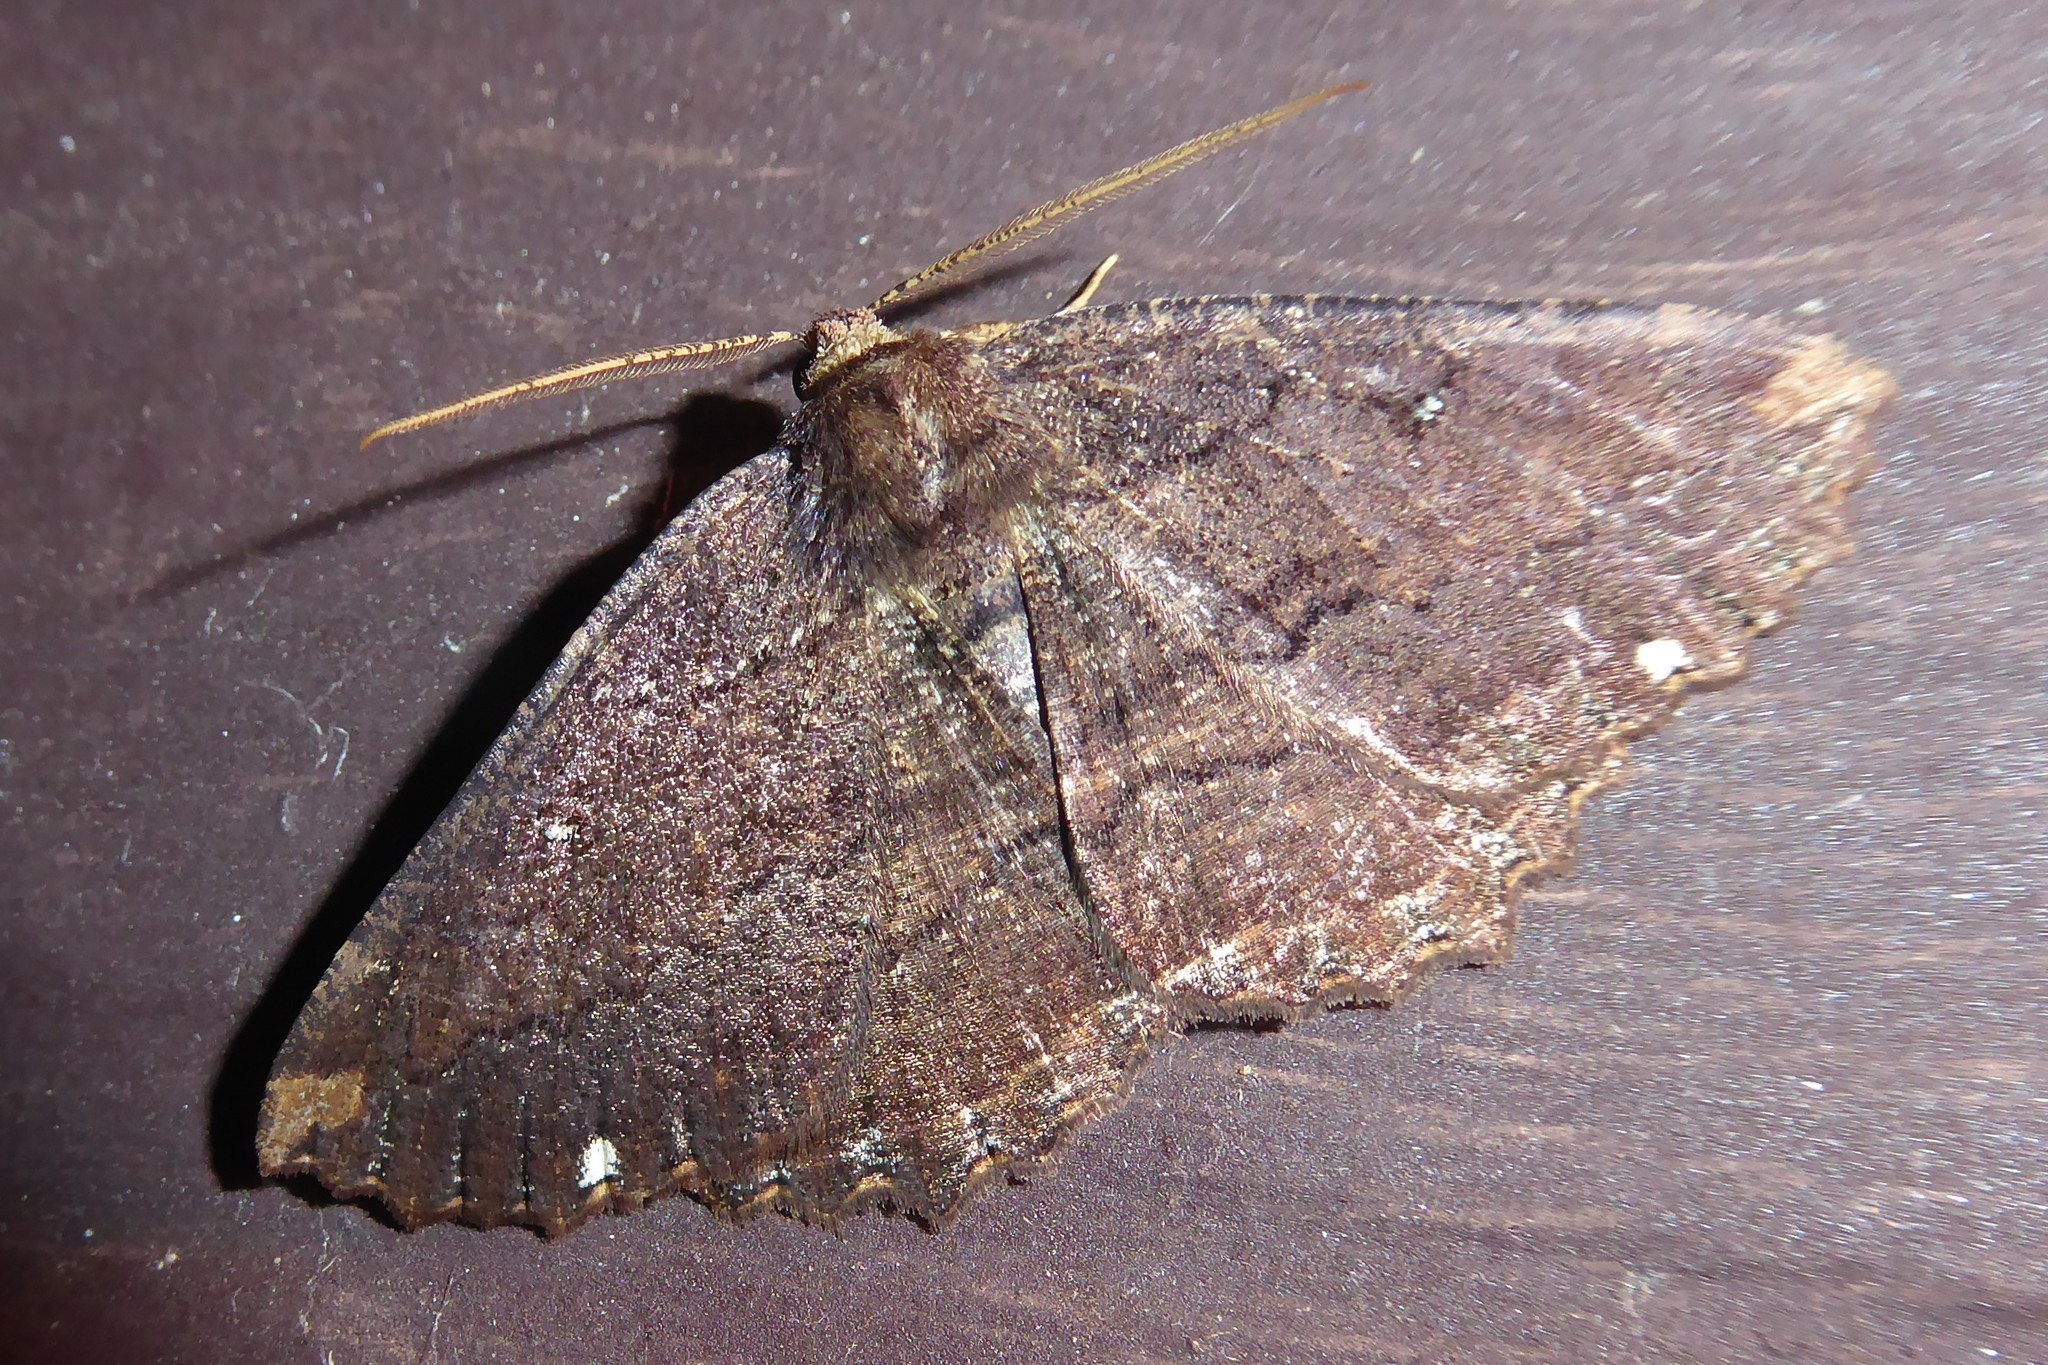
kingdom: Animalia
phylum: Arthropoda
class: Insecta
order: Lepidoptera
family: Geometridae
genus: Gellonia
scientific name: Gellonia dejectaria
